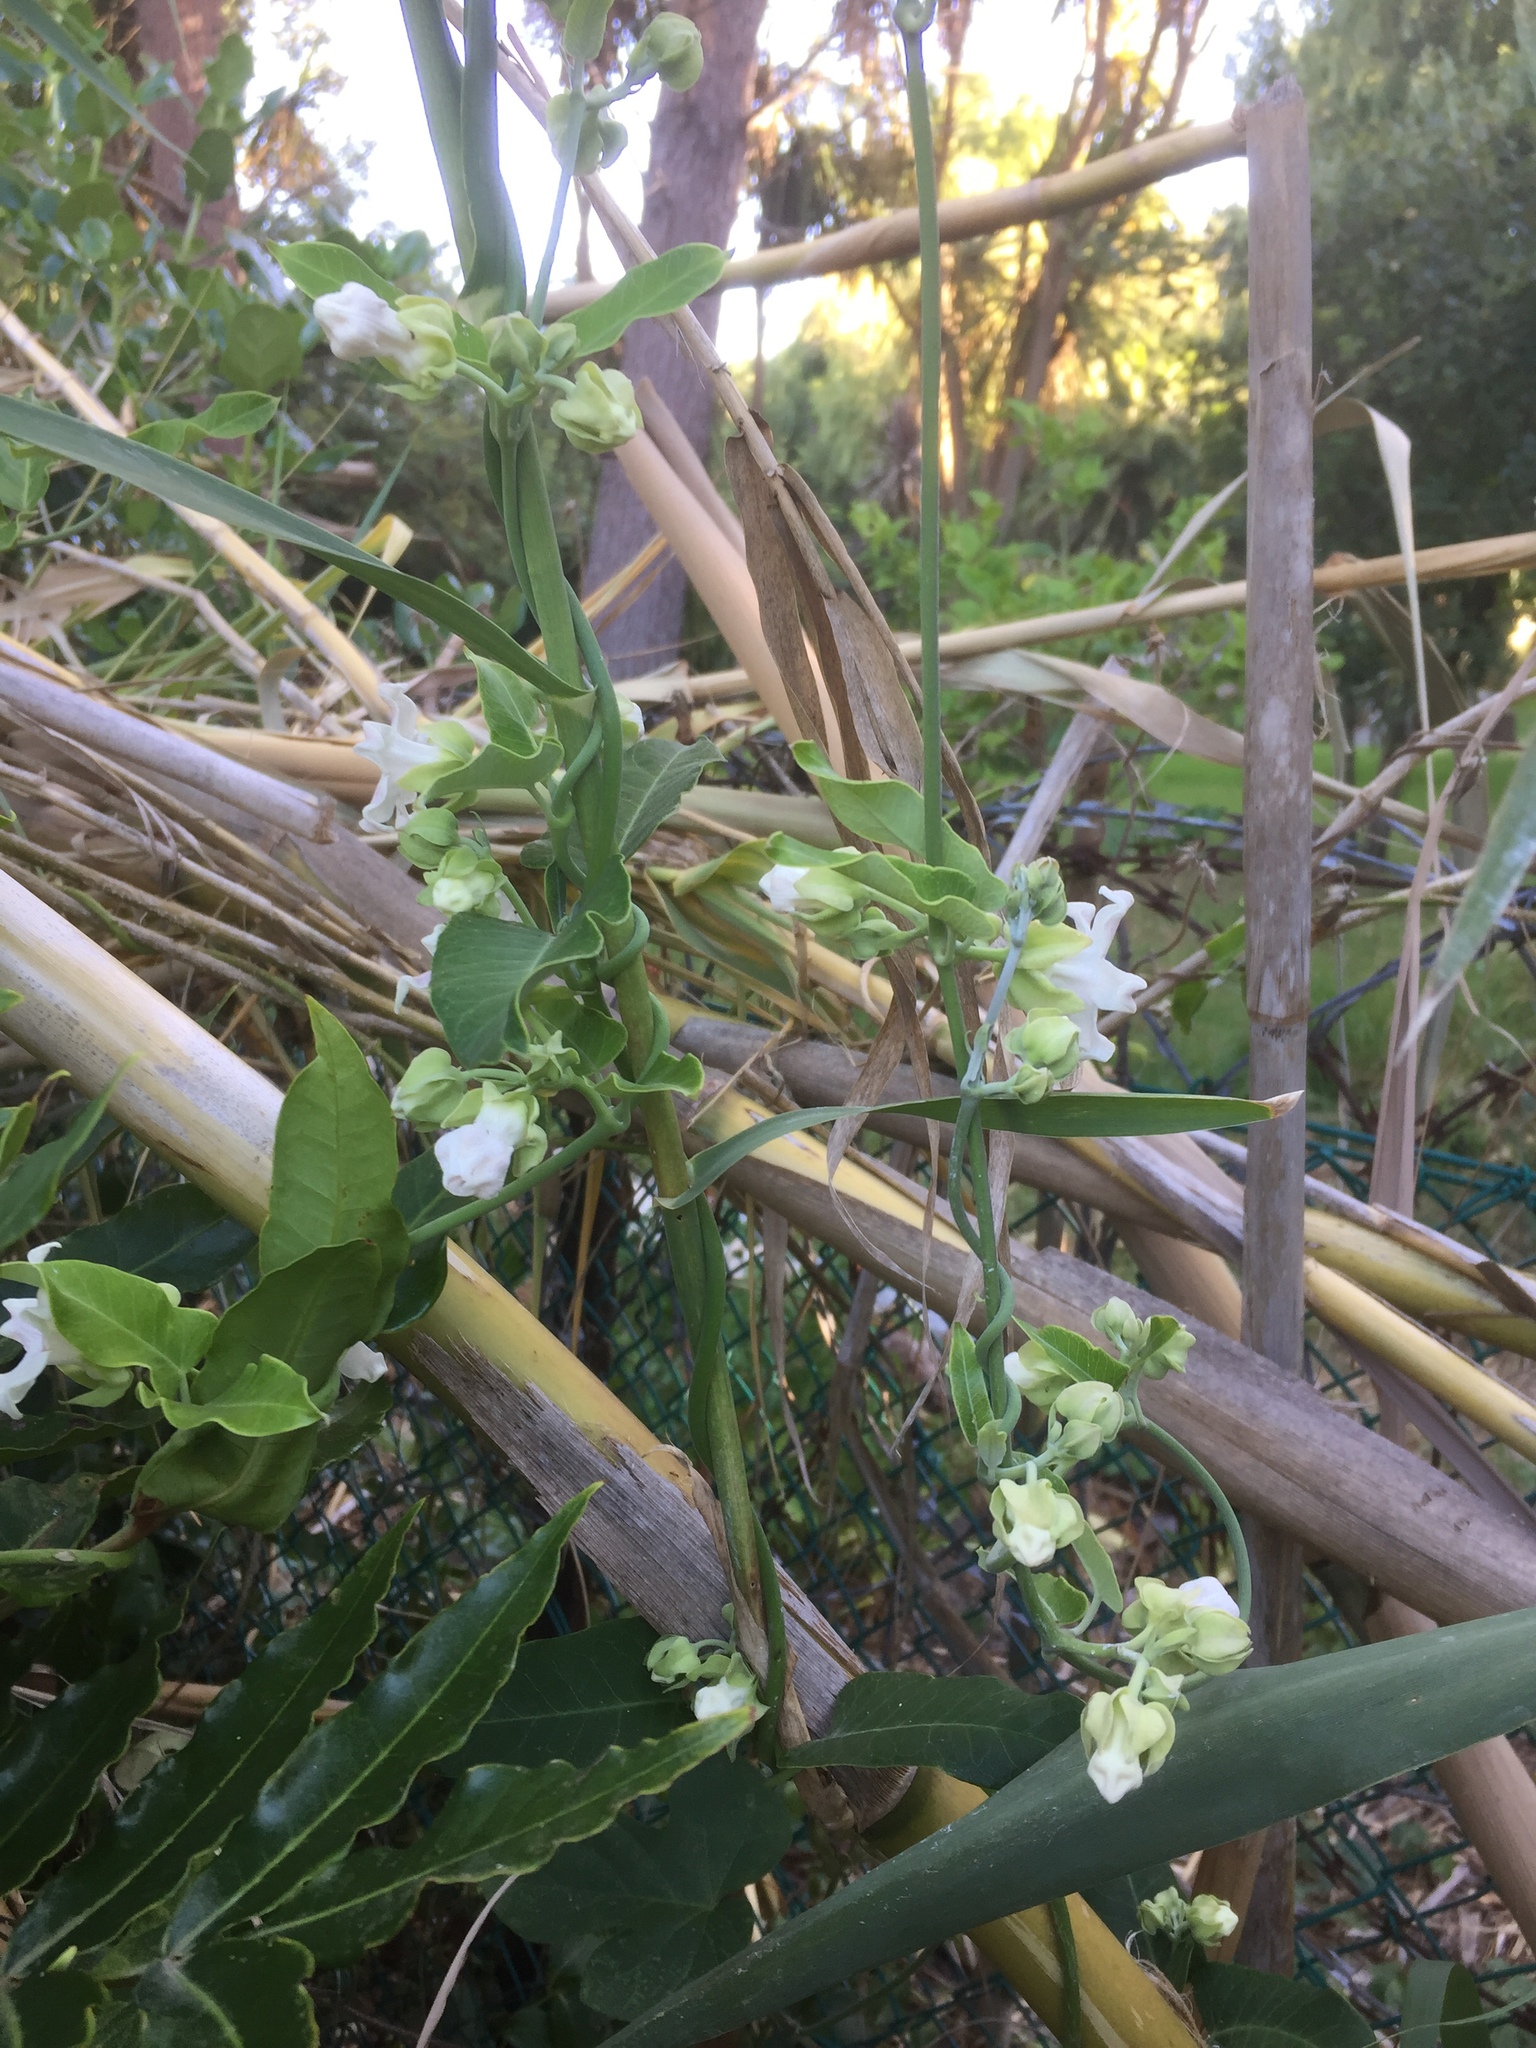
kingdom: Plantae
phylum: Tracheophyta
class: Magnoliopsida
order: Gentianales
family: Apocynaceae
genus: Araujia
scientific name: Araujia sericifera
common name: White bladderflower
